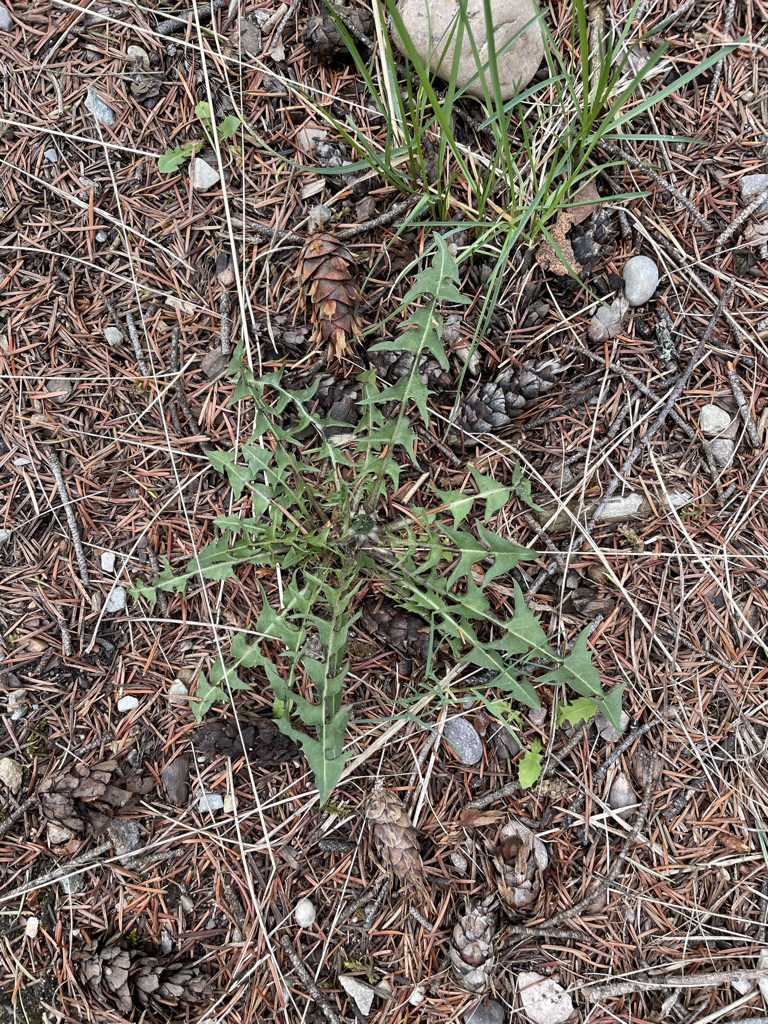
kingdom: Plantae
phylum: Tracheophyta
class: Magnoliopsida
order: Asterales
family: Asteraceae
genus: Taraxacum
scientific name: Taraxacum erythrospermum
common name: Rock dandelion
